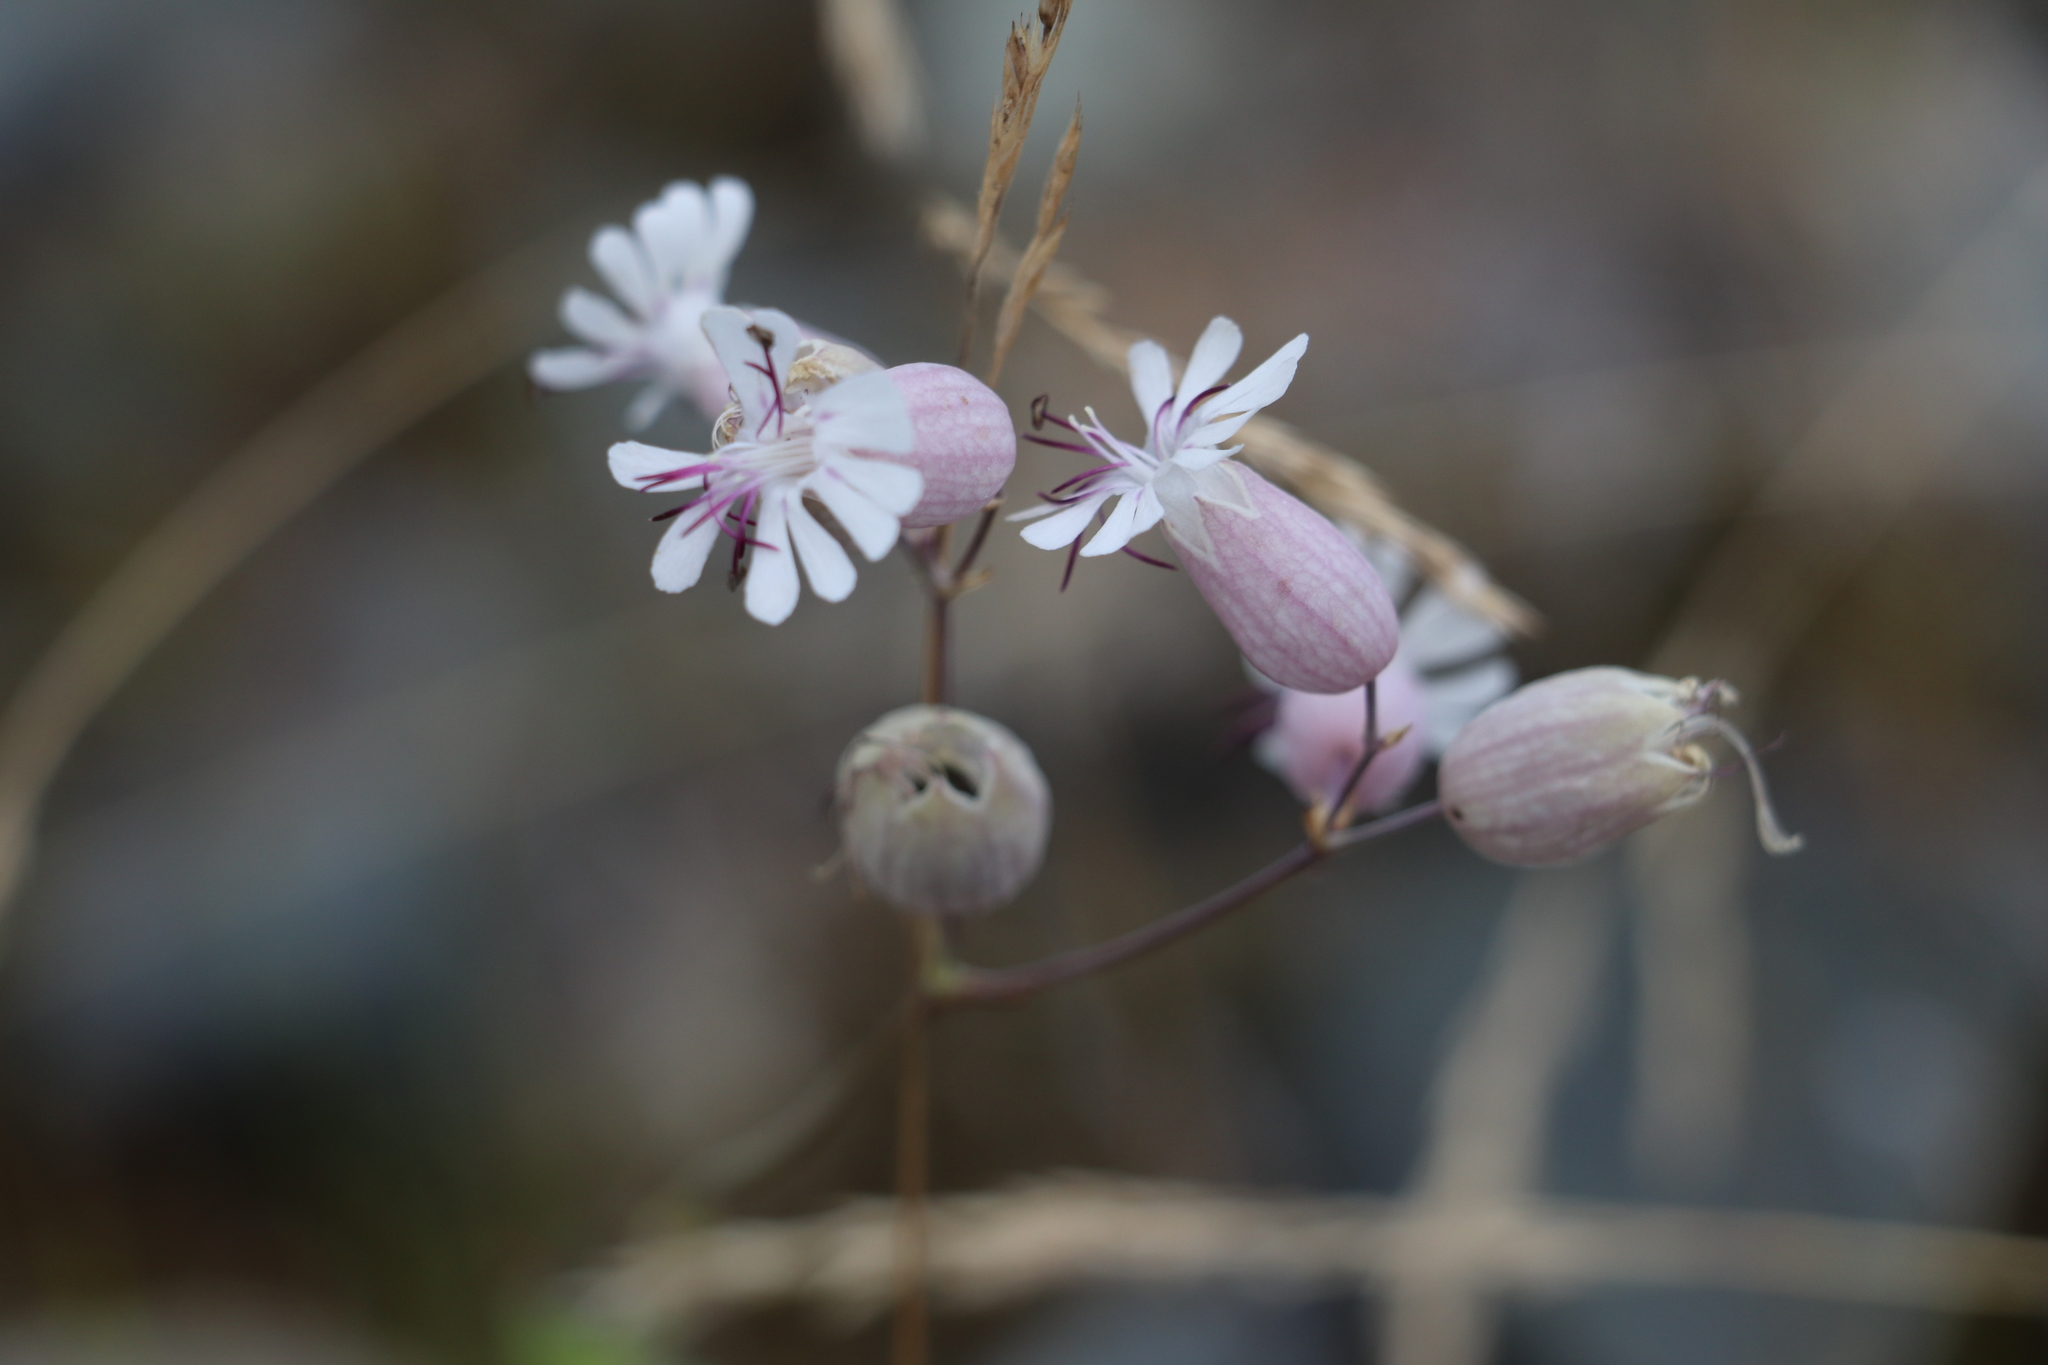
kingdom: Plantae
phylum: Tracheophyta
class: Magnoliopsida
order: Caryophyllales
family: Caryophyllaceae
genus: Silene
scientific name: Silene vulgaris
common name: Bladder campion
